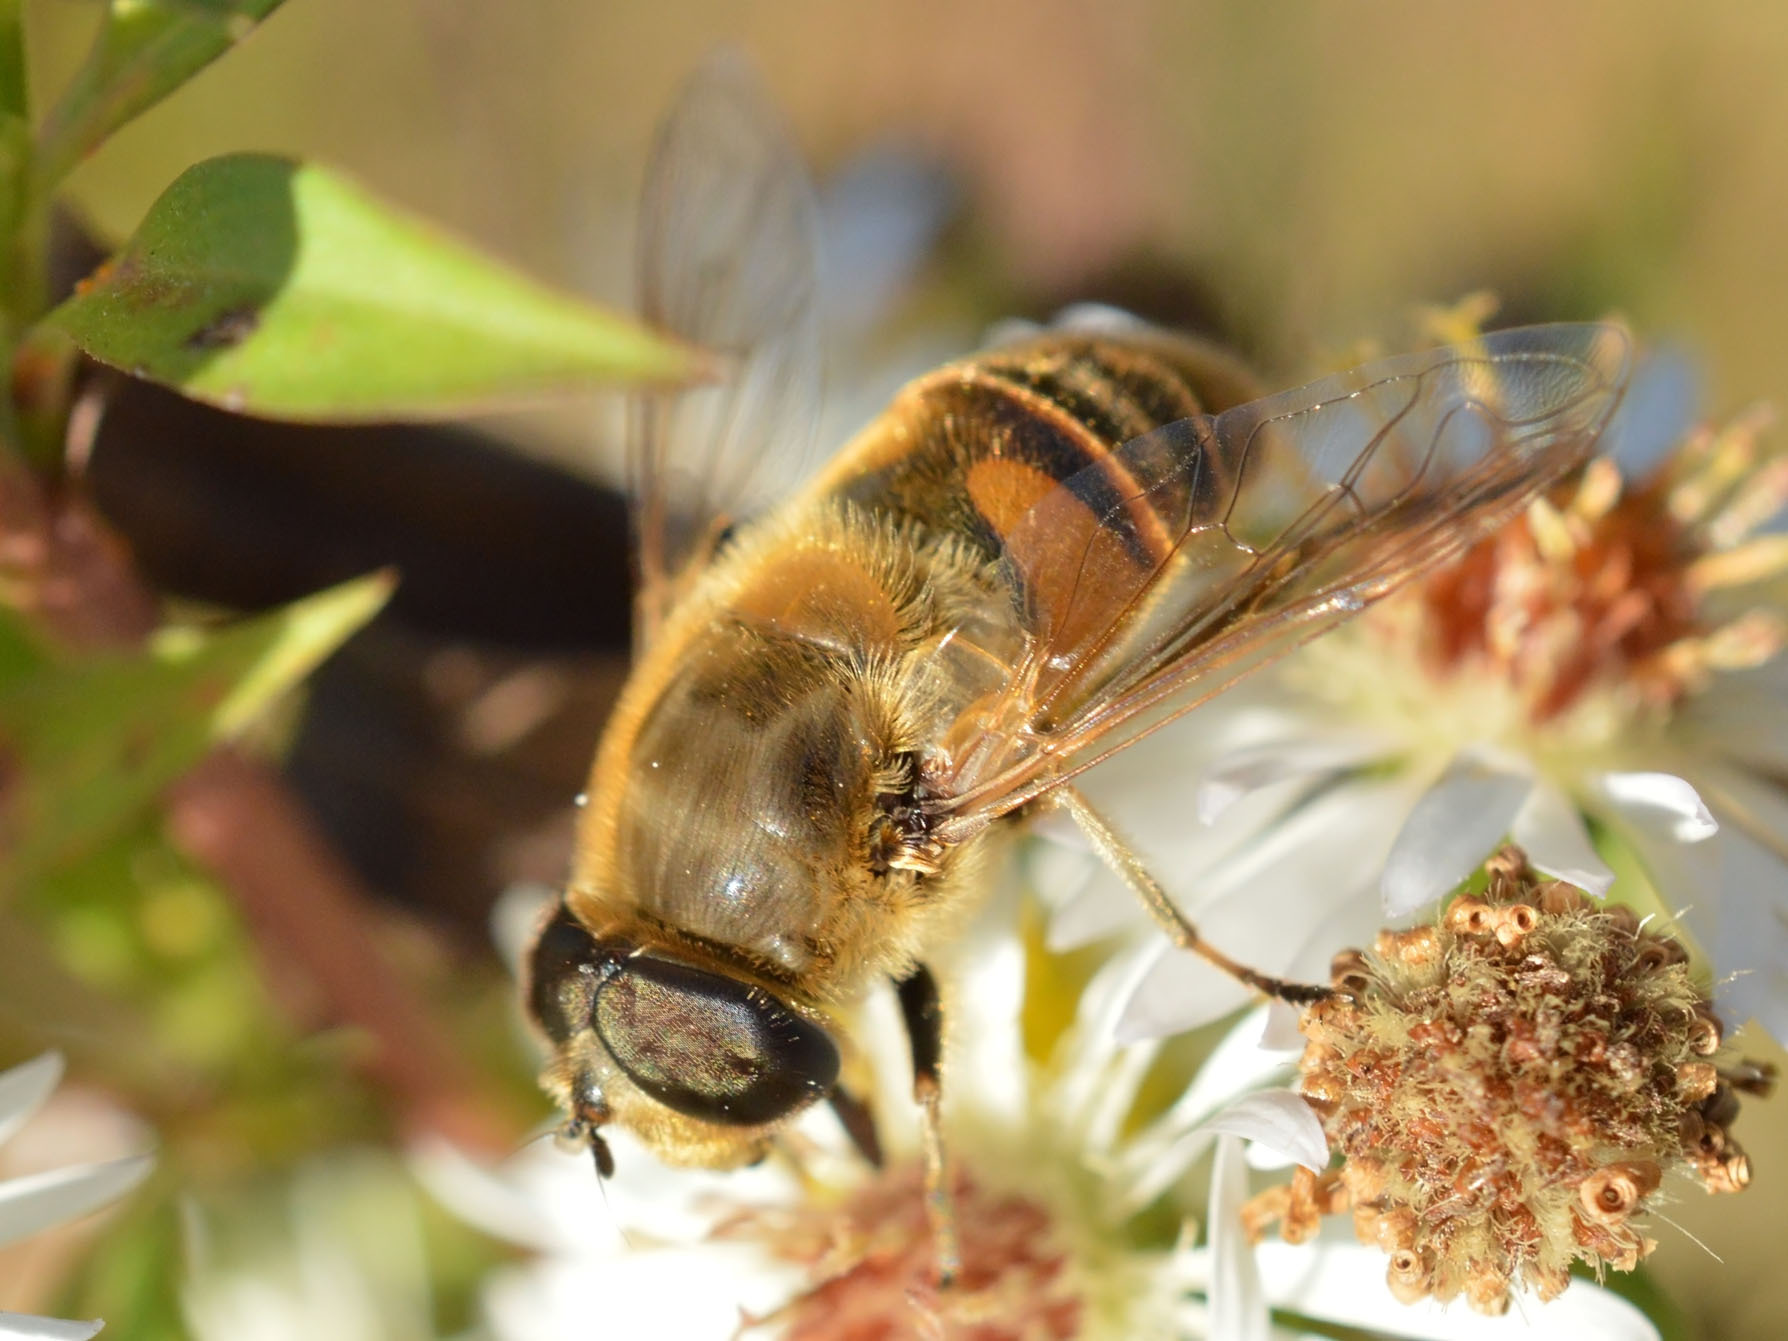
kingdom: Animalia
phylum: Arthropoda
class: Insecta
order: Diptera
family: Syrphidae
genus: Eristalis
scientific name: Eristalis tenax
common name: Drone fly
